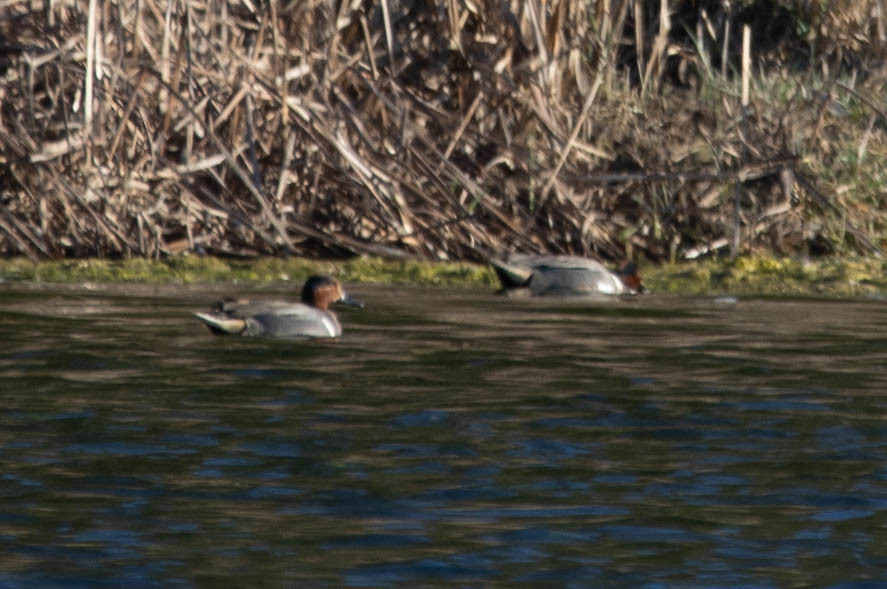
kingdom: Animalia
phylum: Chordata
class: Aves
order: Anseriformes
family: Anatidae
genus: Anas
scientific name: Anas carolinensis
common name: Green-winged teal
